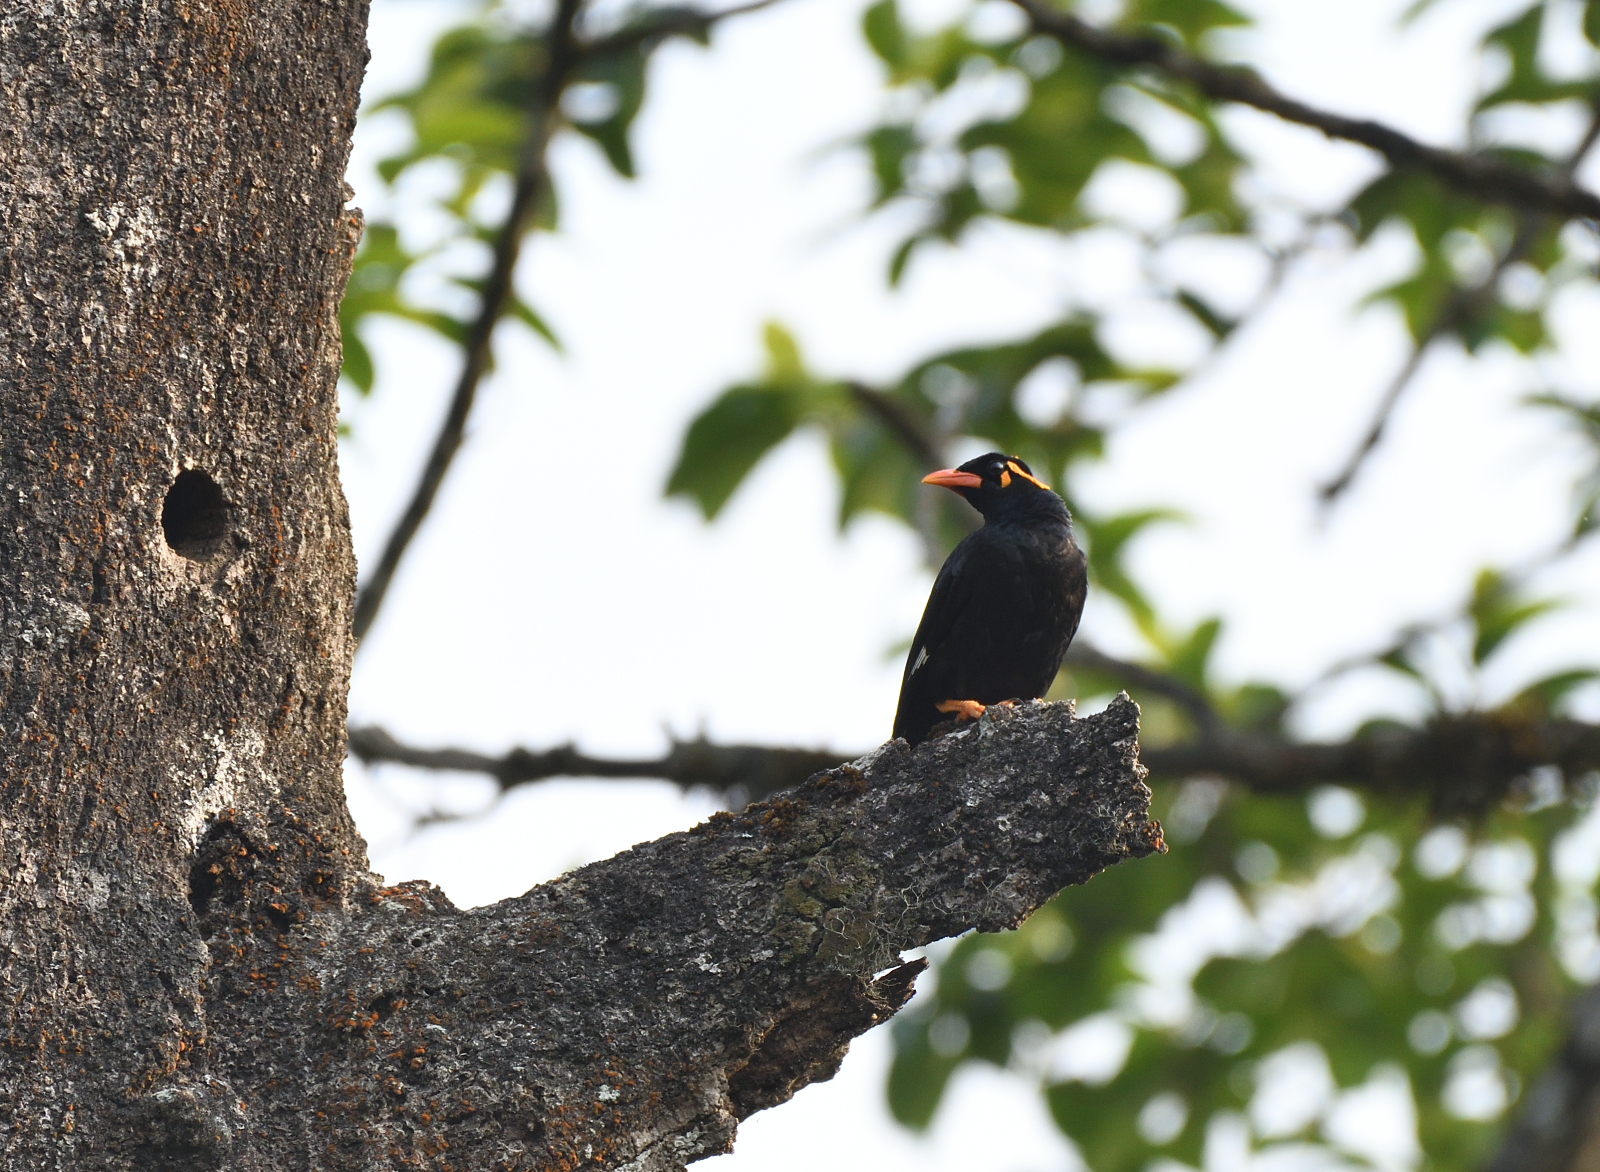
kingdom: Animalia
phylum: Chordata
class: Aves
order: Passeriformes
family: Sturnidae
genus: Gracula
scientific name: Gracula indica
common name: Southern hill myna
